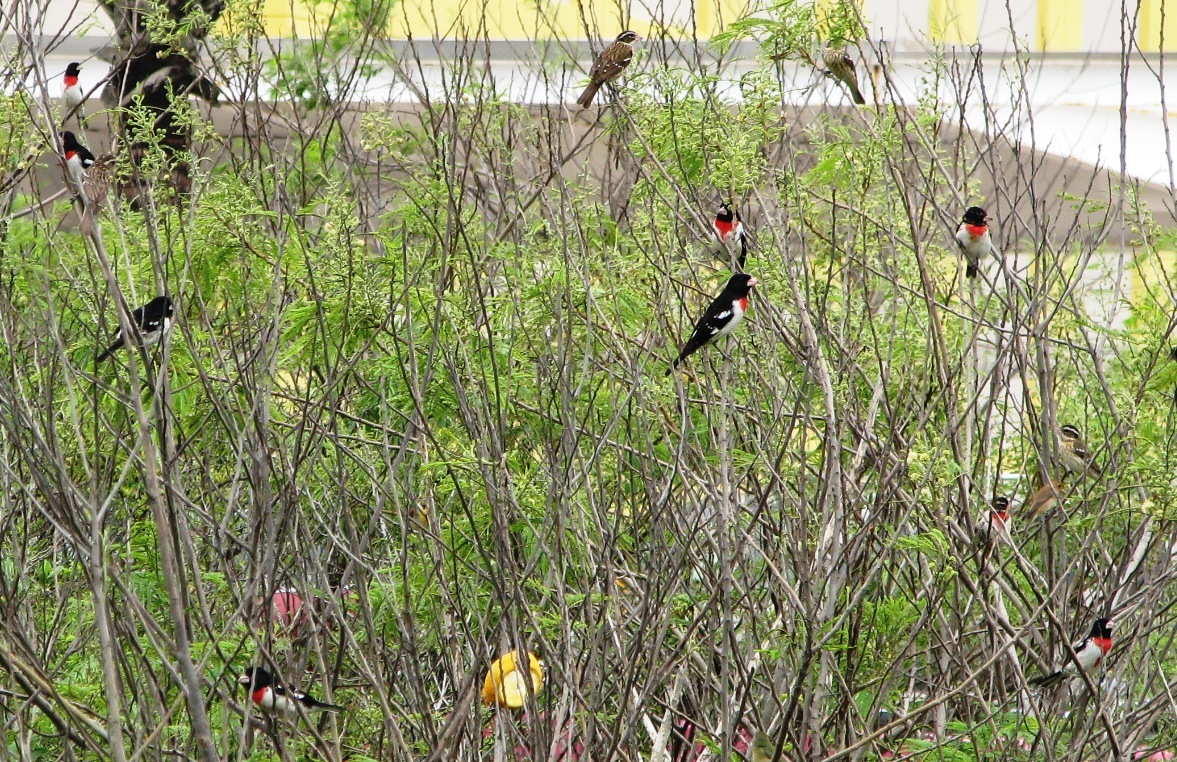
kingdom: Animalia
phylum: Chordata
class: Aves
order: Passeriformes
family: Cardinalidae
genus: Pheucticus
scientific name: Pheucticus ludovicianus
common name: Rose-breasted grosbeak
